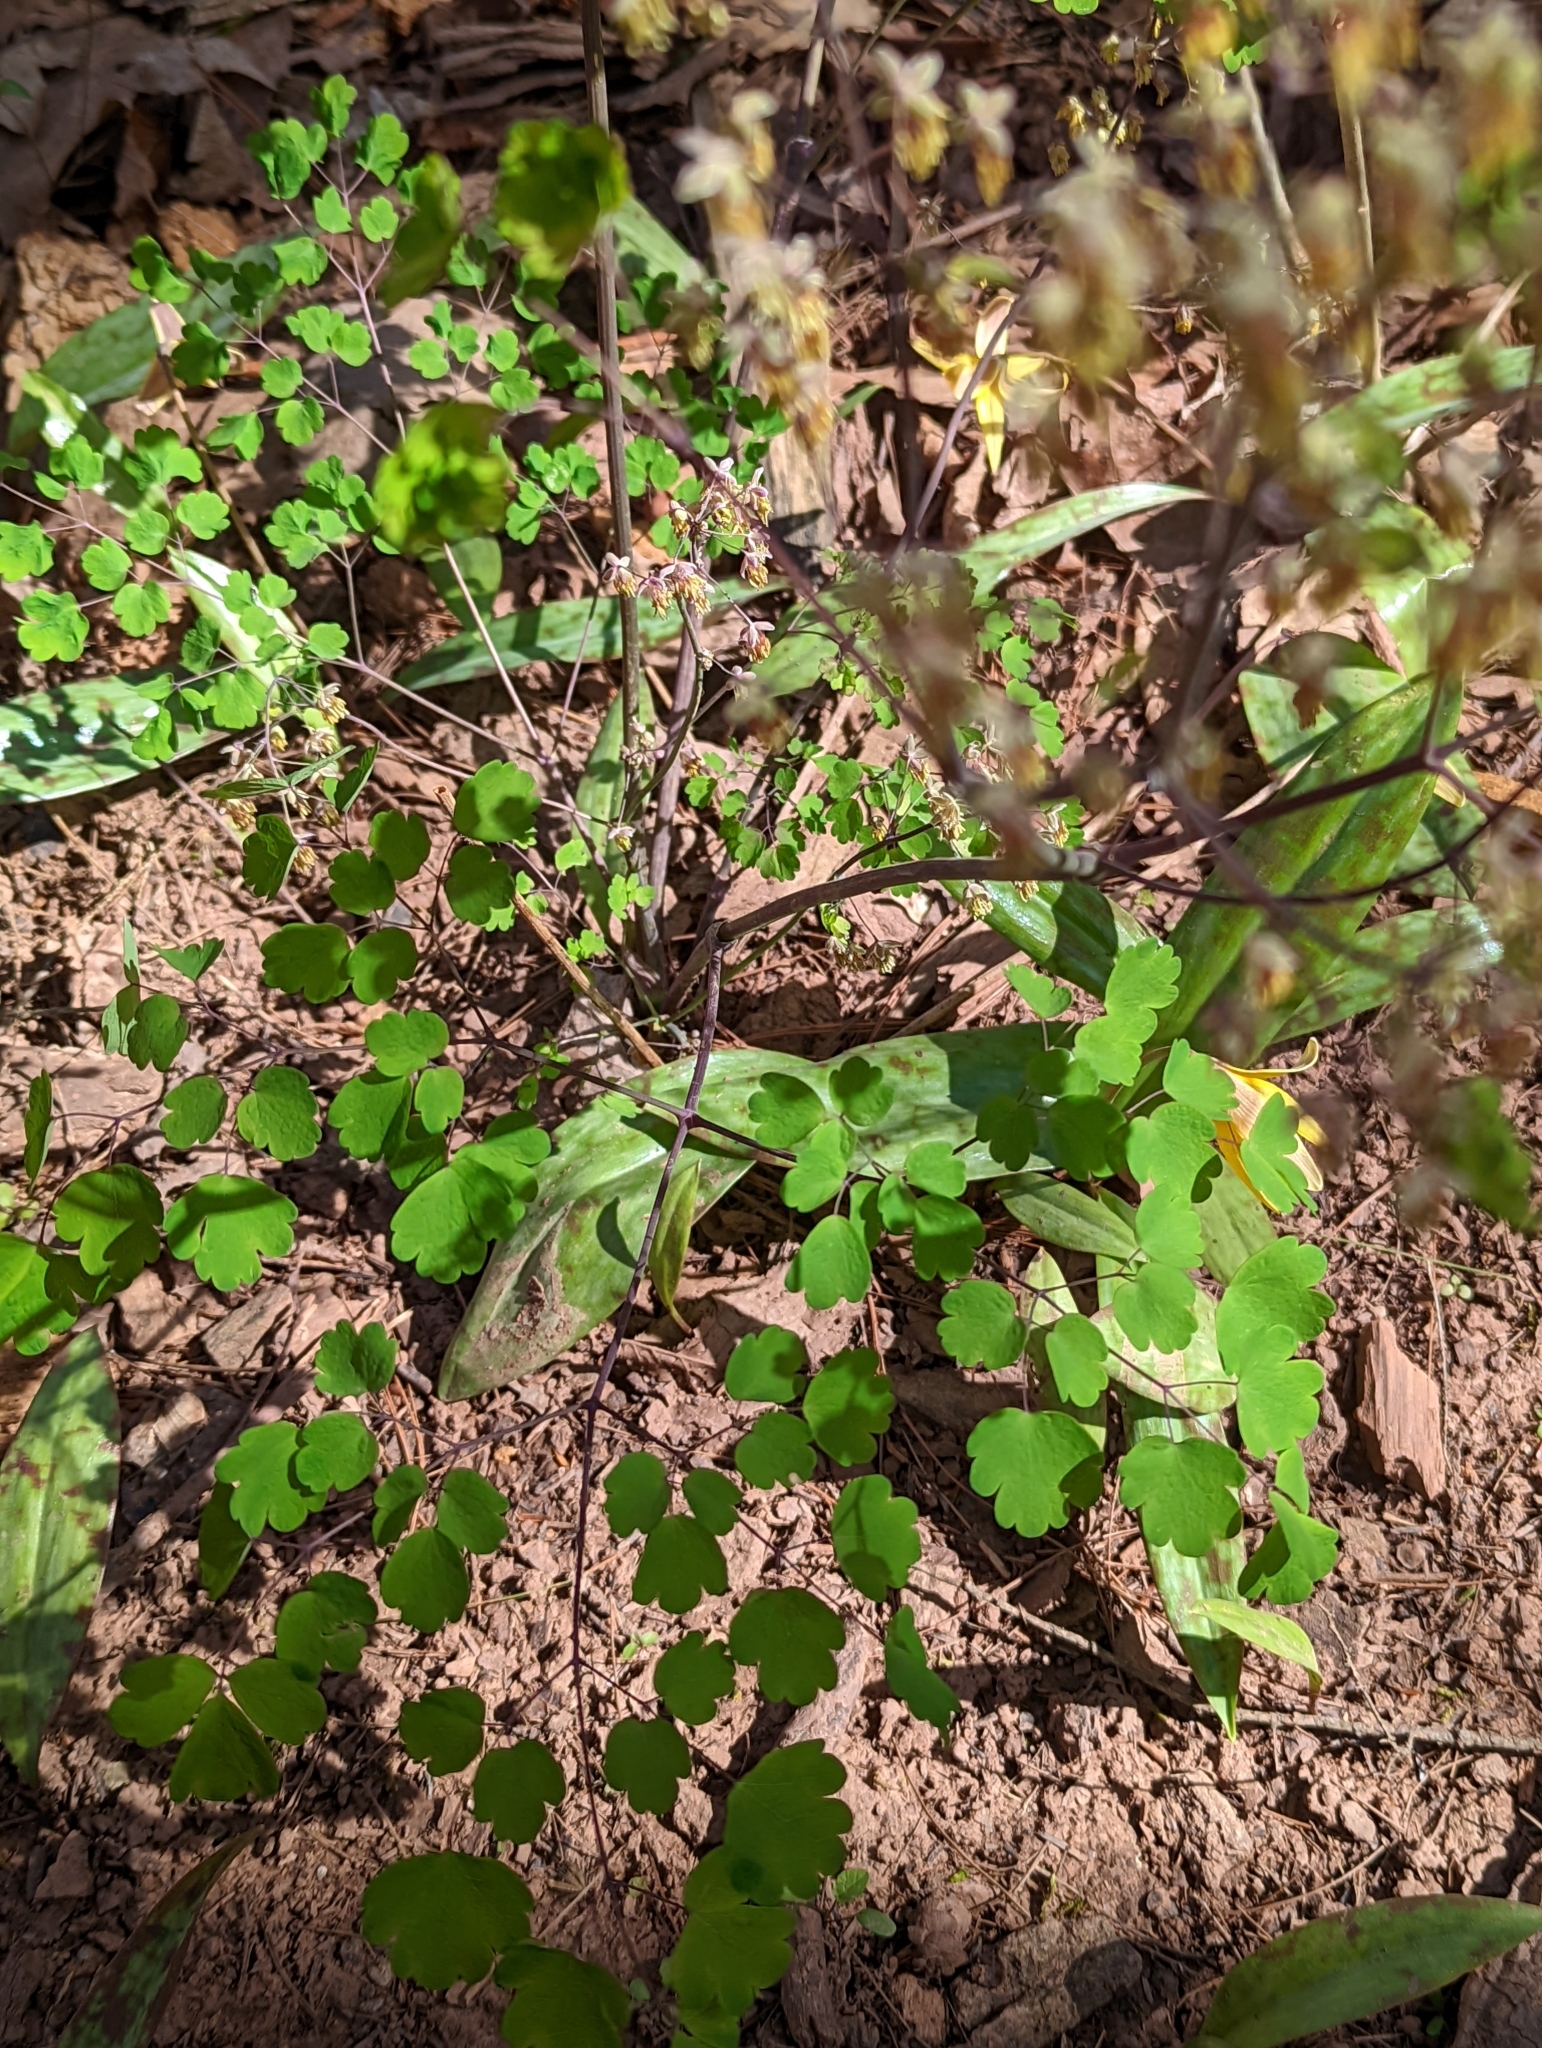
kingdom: Plantae
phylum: Tracheophyta
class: Magnoliopsida
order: Ranunculales
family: Ranunculaceae
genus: Thalictrum
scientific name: Thalictrum dioicum
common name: Early meadow-rue
